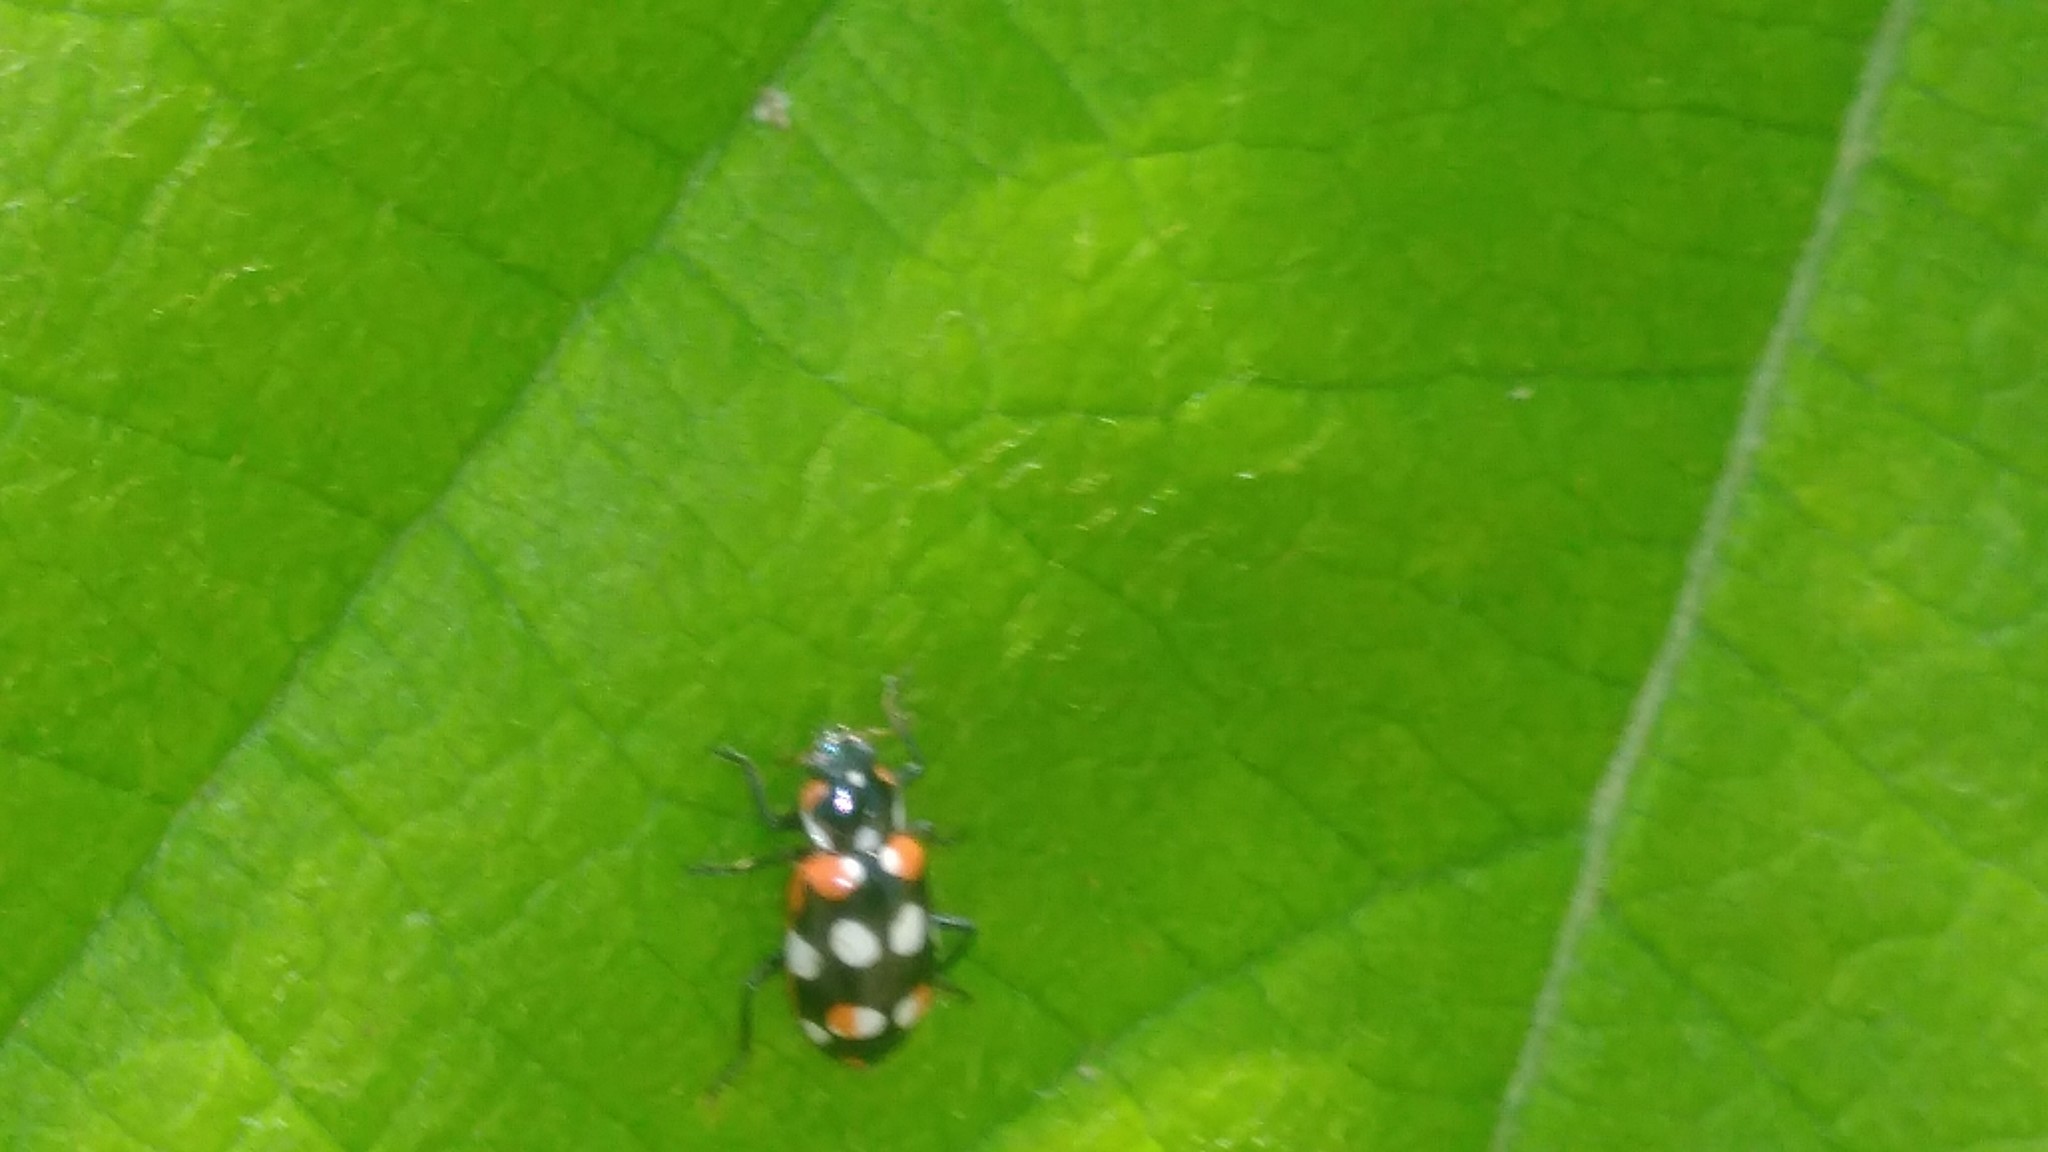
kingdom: Animalia
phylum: Arthropoda
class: Insecta
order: Coleoptera
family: Coccinellidae
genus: Eriopis
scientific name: Eriopis connexa
